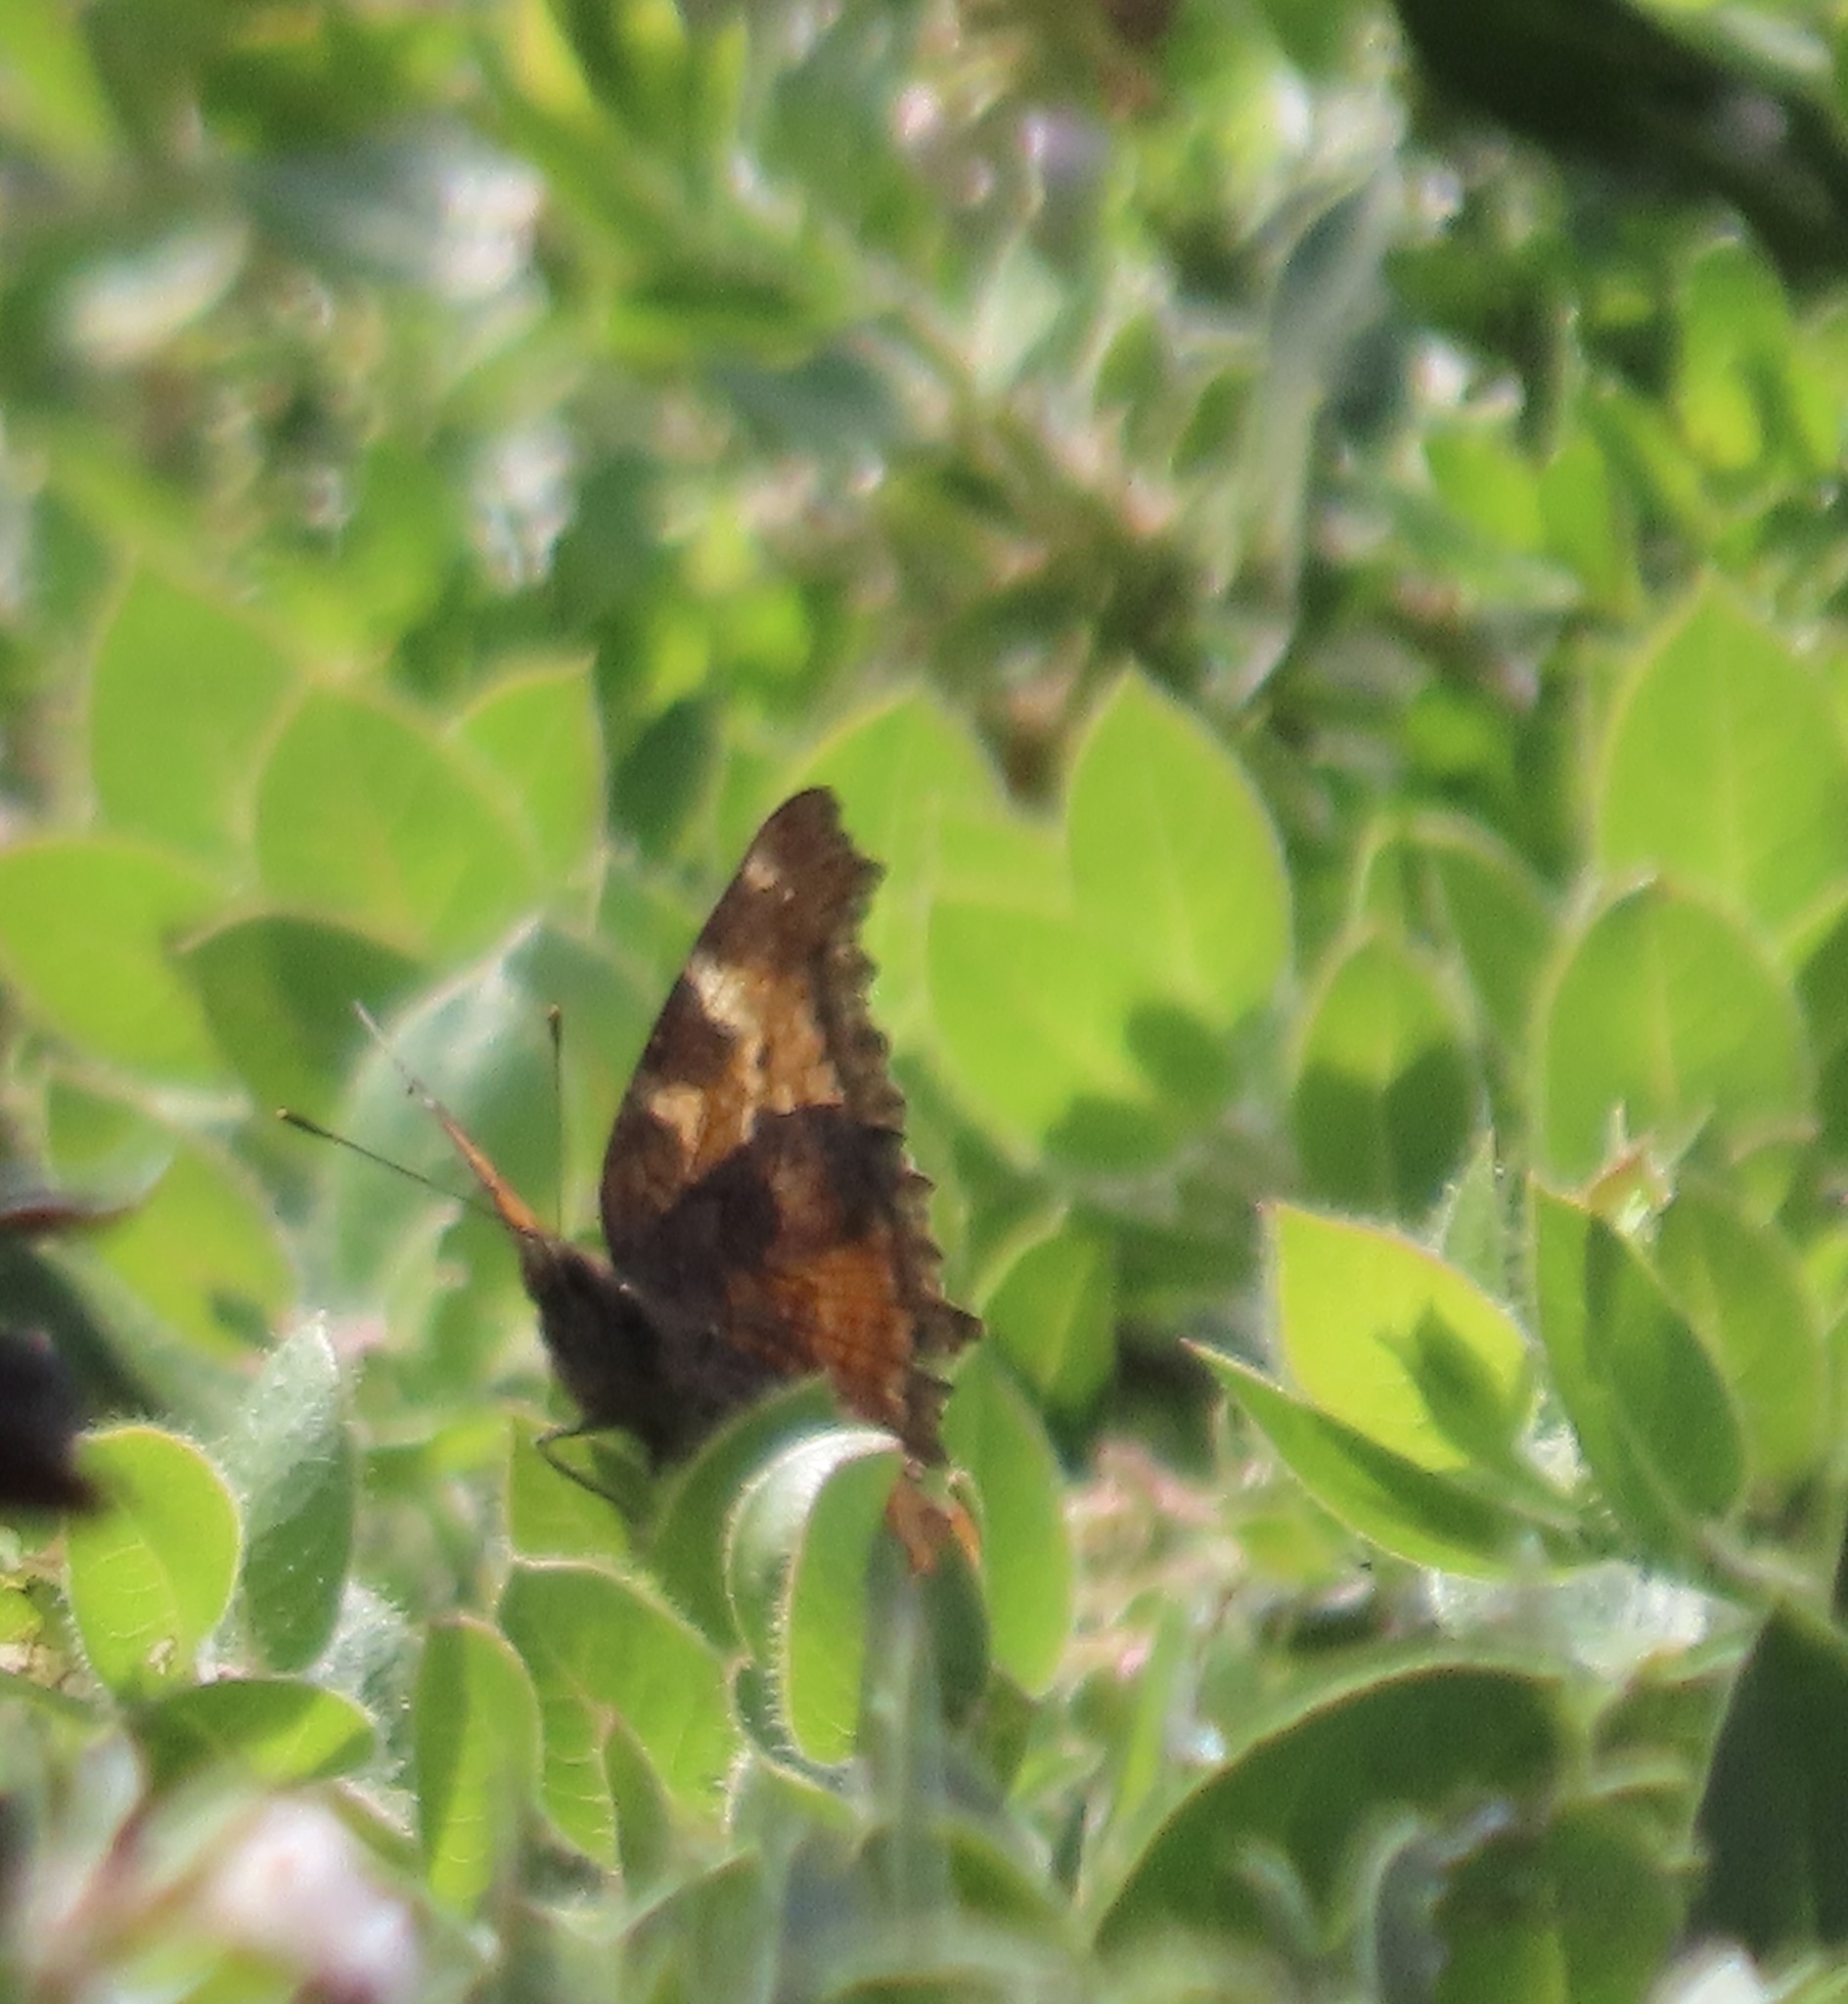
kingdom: Animalia
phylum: Arthropoda
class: Insecta
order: Lepidoptera
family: Nymphalidae
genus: Nymphalis
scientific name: Nymphalis californica
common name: California tortoiseshell
